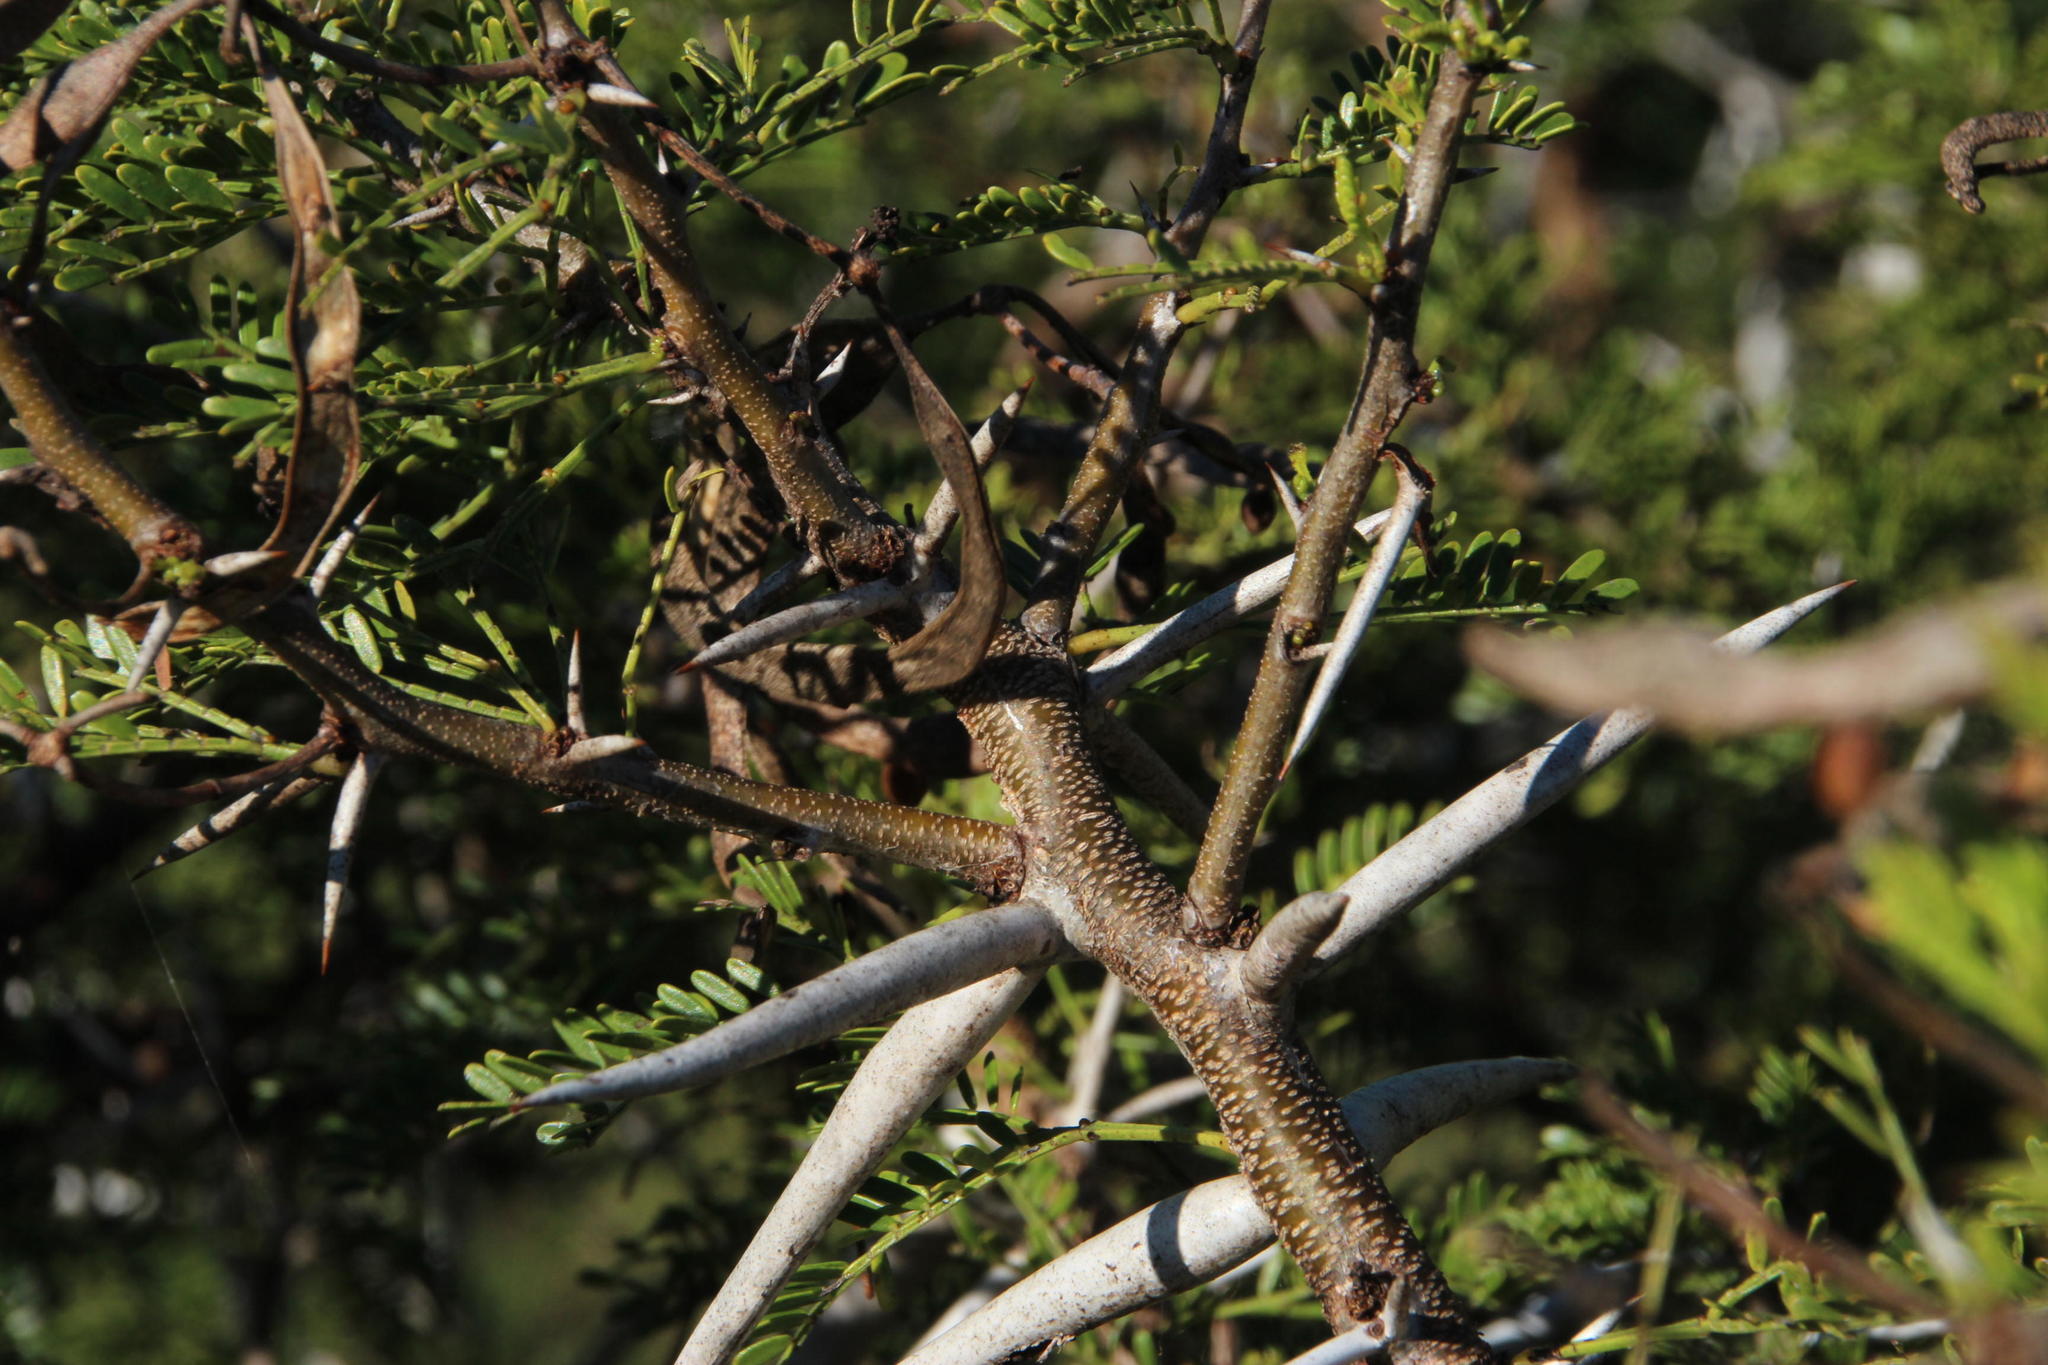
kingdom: Plantae
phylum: Tracheophyta
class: Magnoliopsida
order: Fabales
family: Fabaceae
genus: Vachellia
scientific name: Vachellia karroo
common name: Sweet thorn
